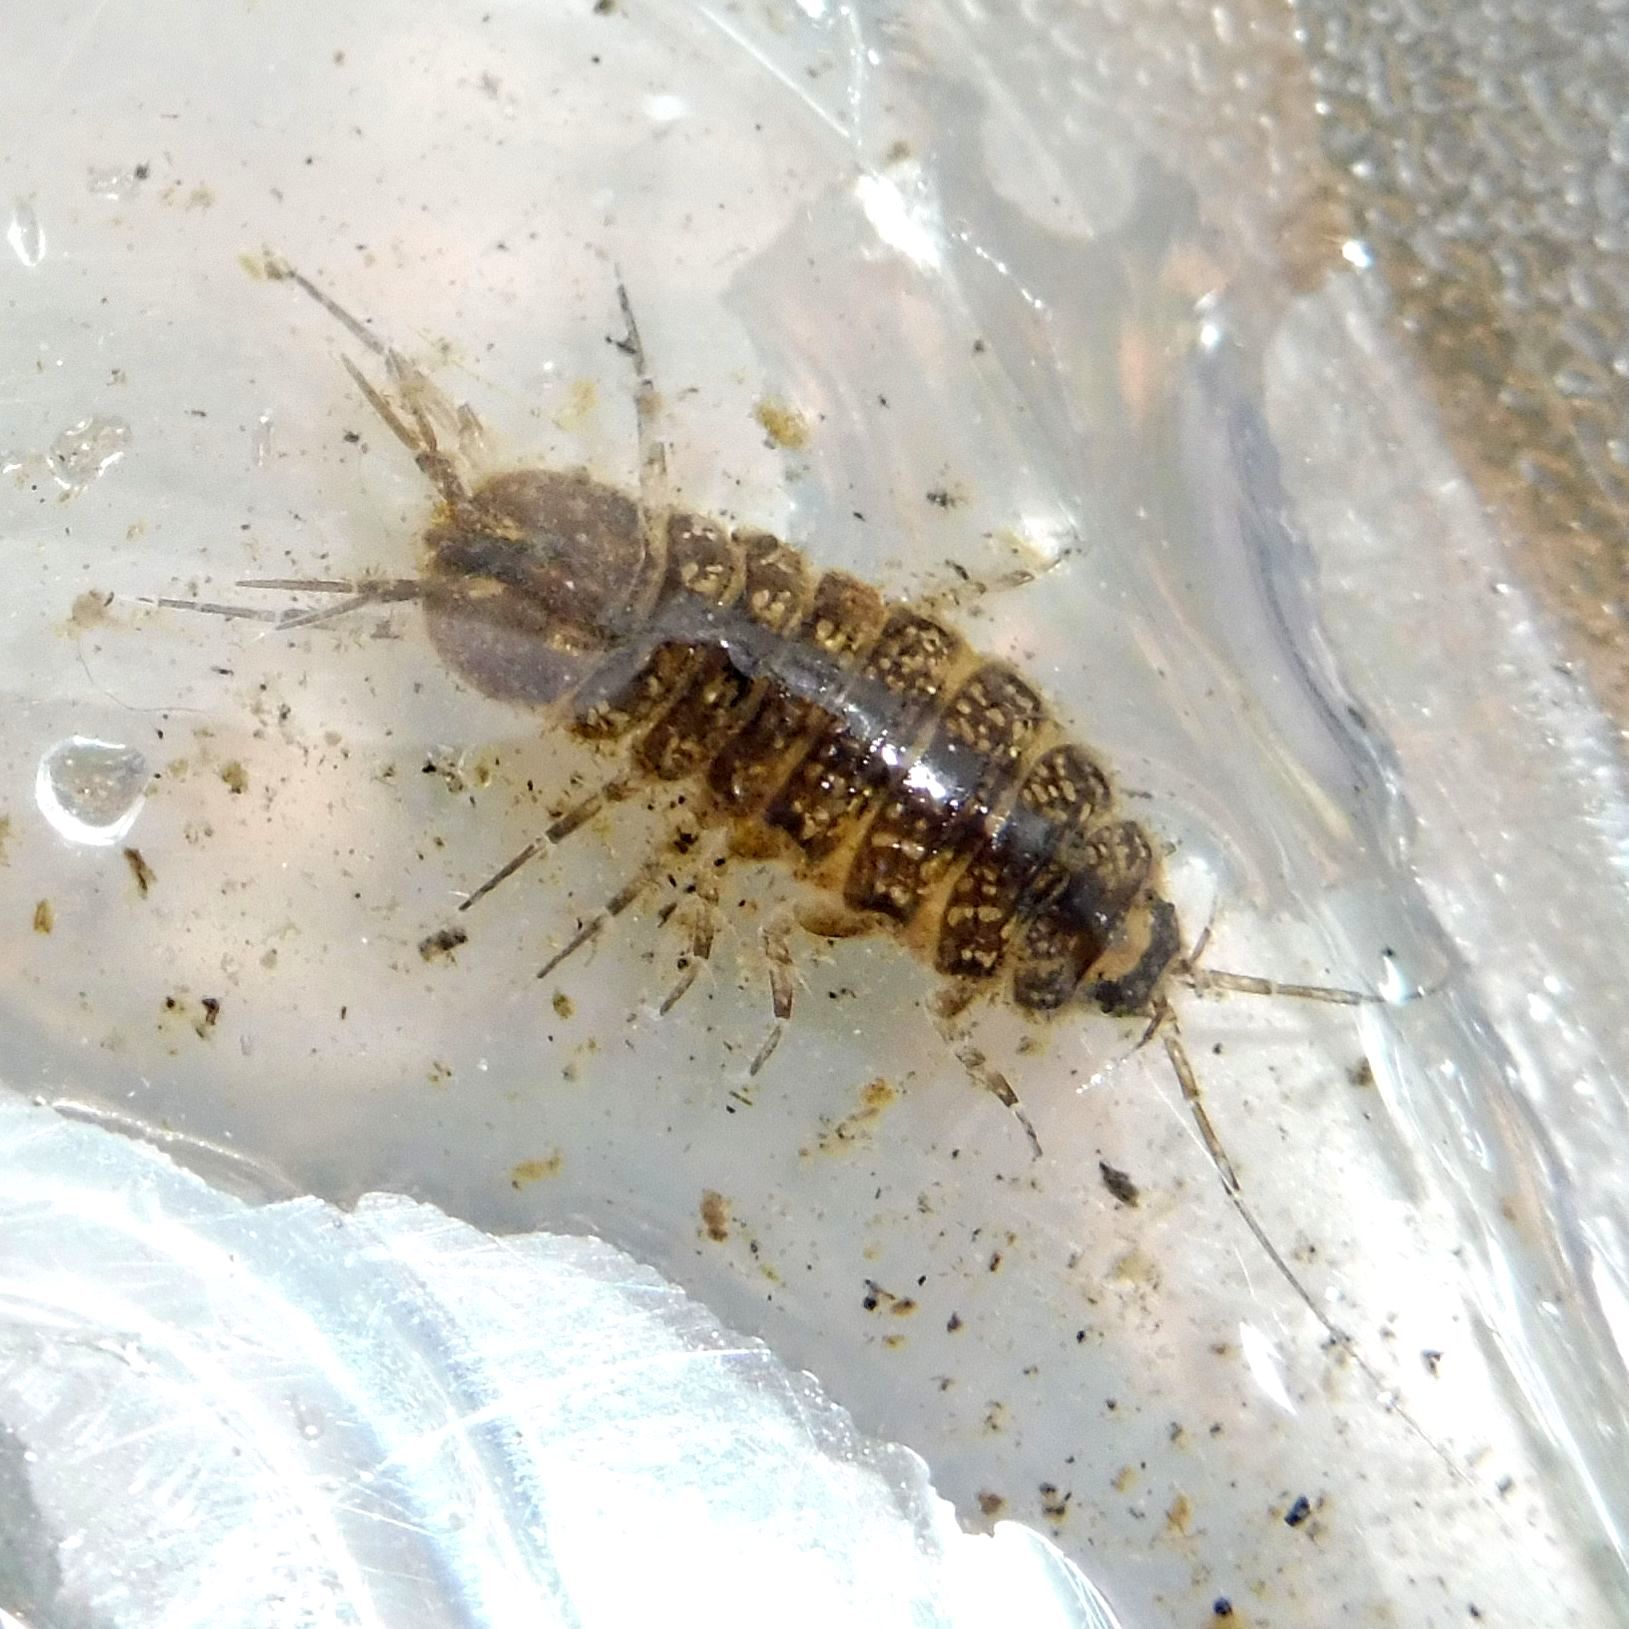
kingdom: Animalia
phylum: Arthropoda
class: Malacostraca
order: Isopoda
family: Asellidae
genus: Proasellus
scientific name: Proasellus meridianus
